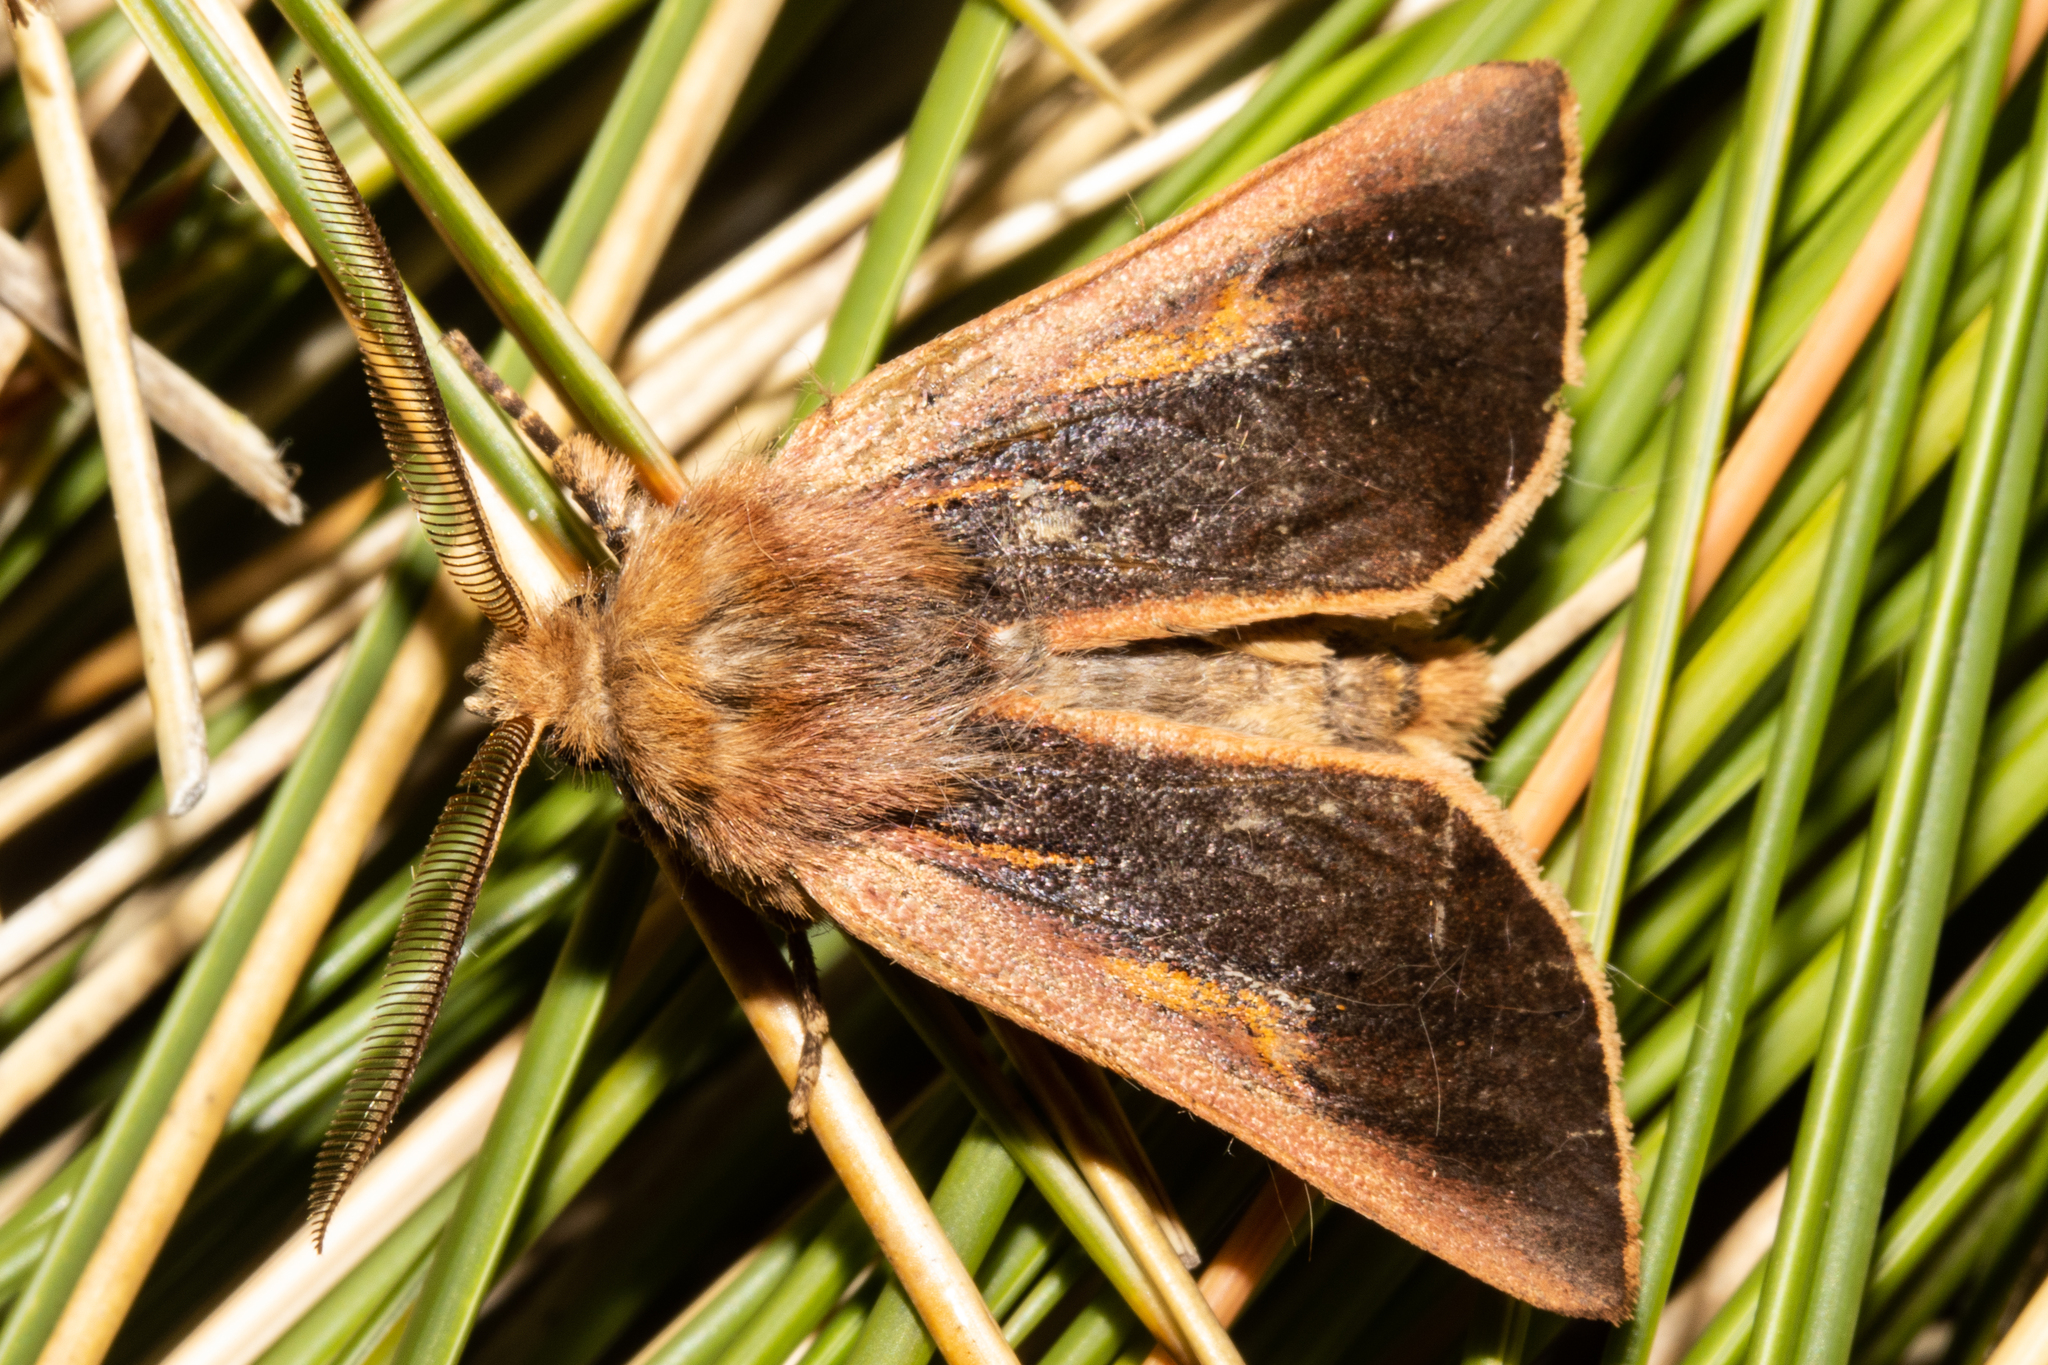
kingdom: Animalia
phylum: Arthropoda
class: Insecta
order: Lepidoptera
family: Noctuidae
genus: Ichneutica
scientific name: Ichneutica dione
